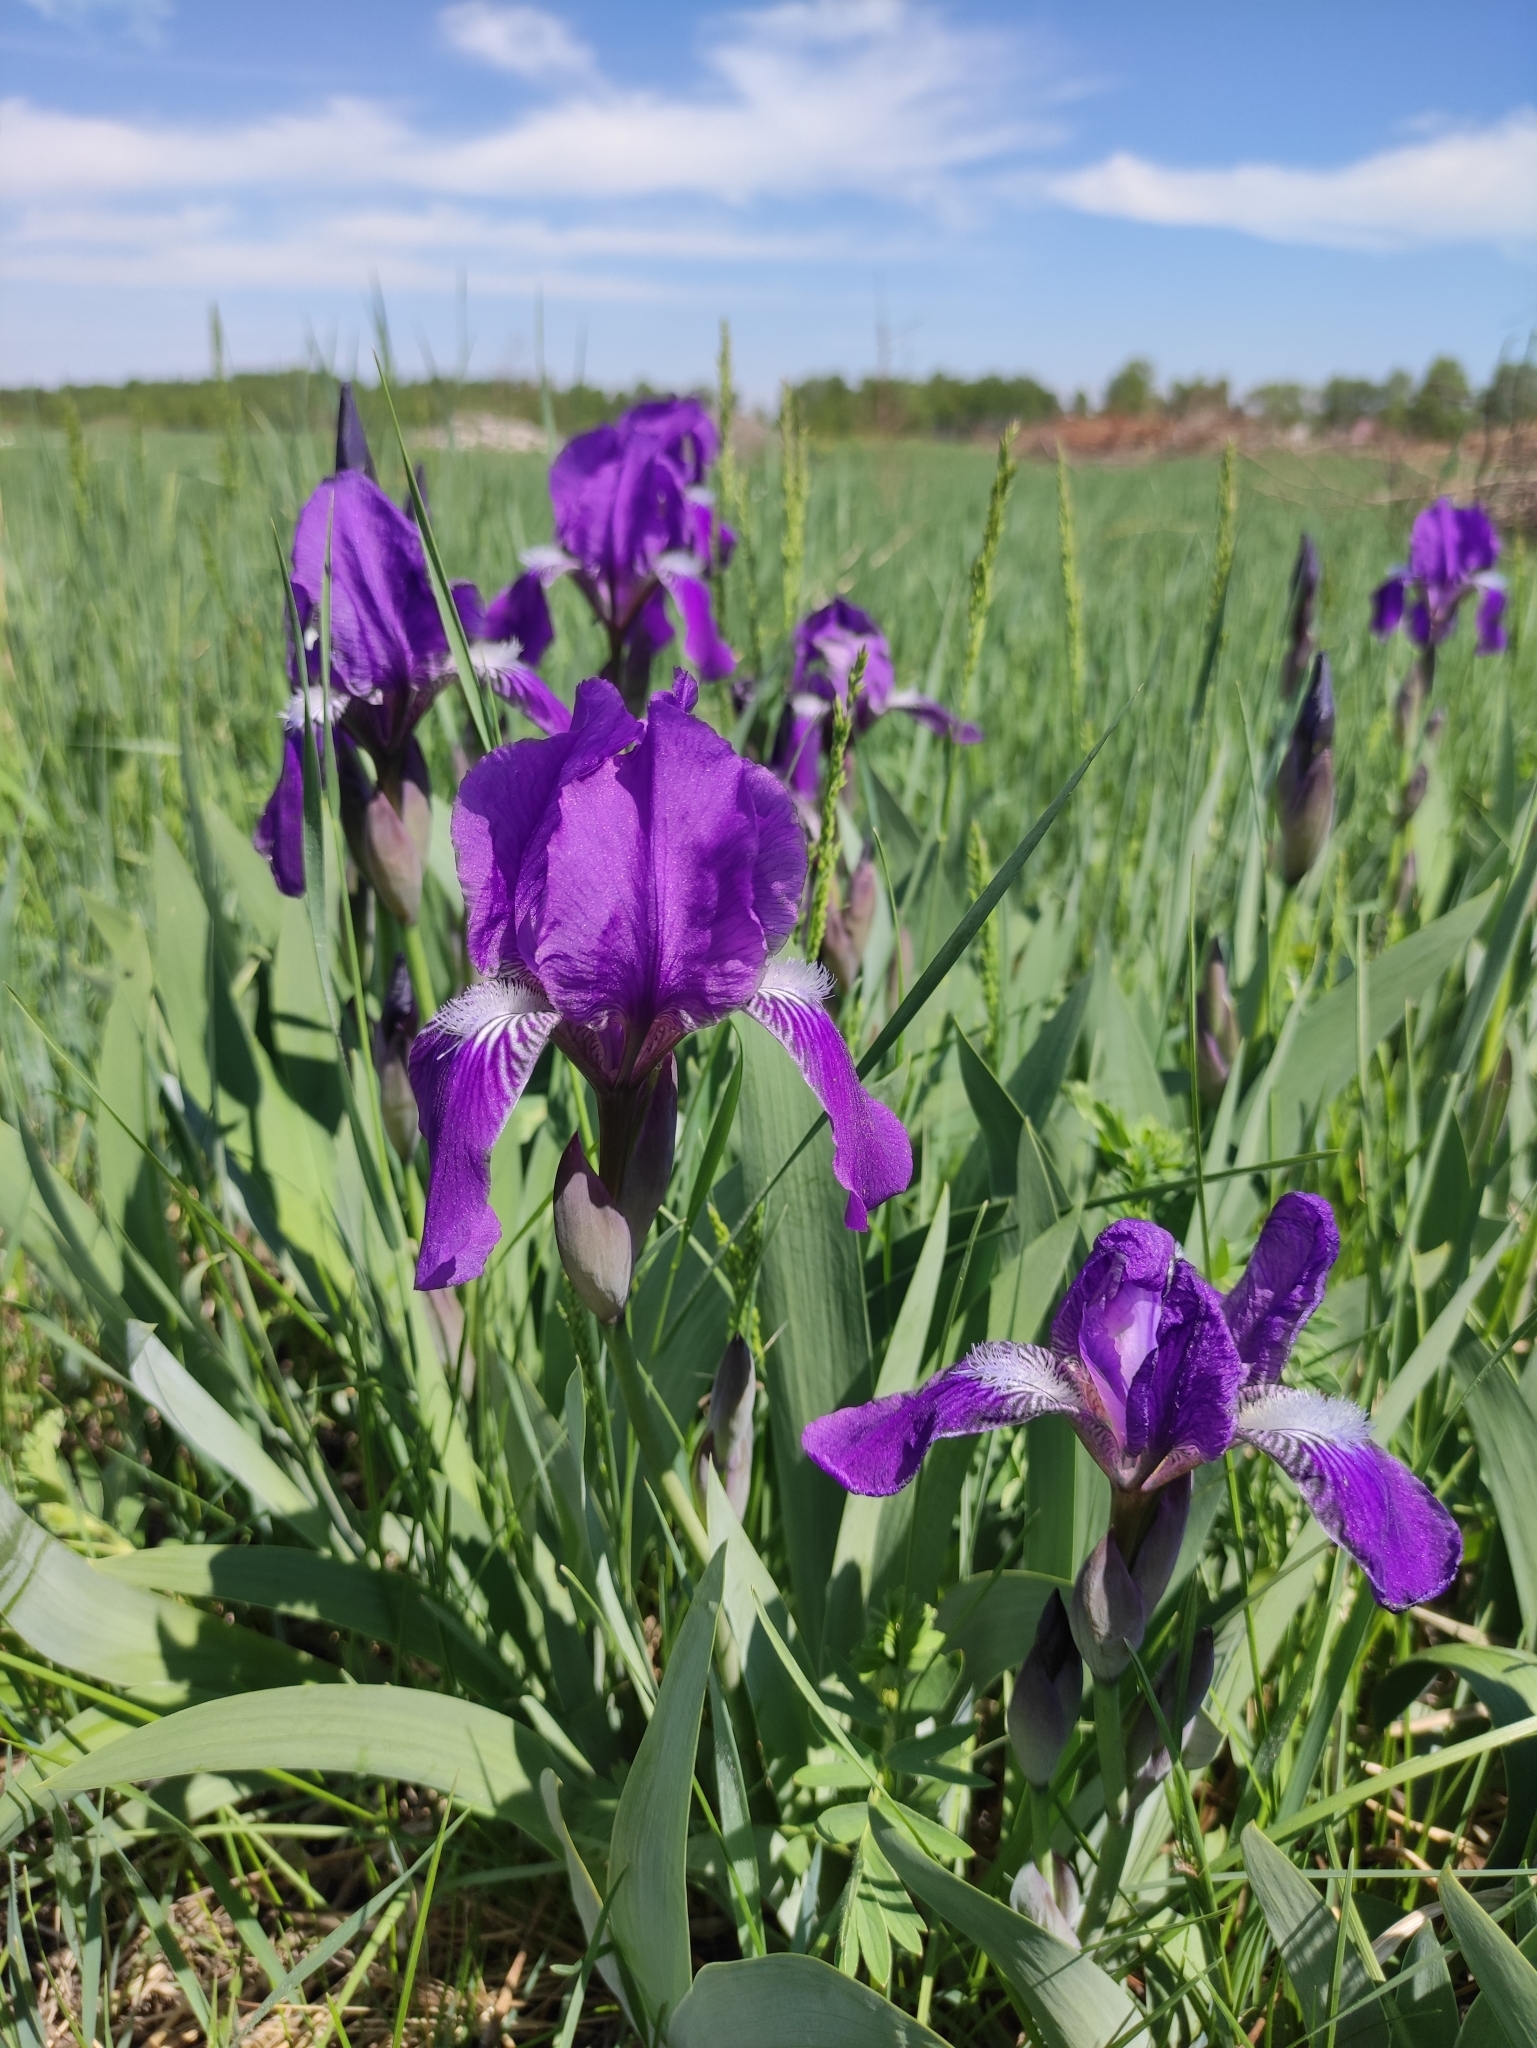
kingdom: Plantae
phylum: Tracheophyta
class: Liliopsida
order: Asparagales
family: Iridaceae
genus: Iris
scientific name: Iris aphylla
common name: Stool iris
